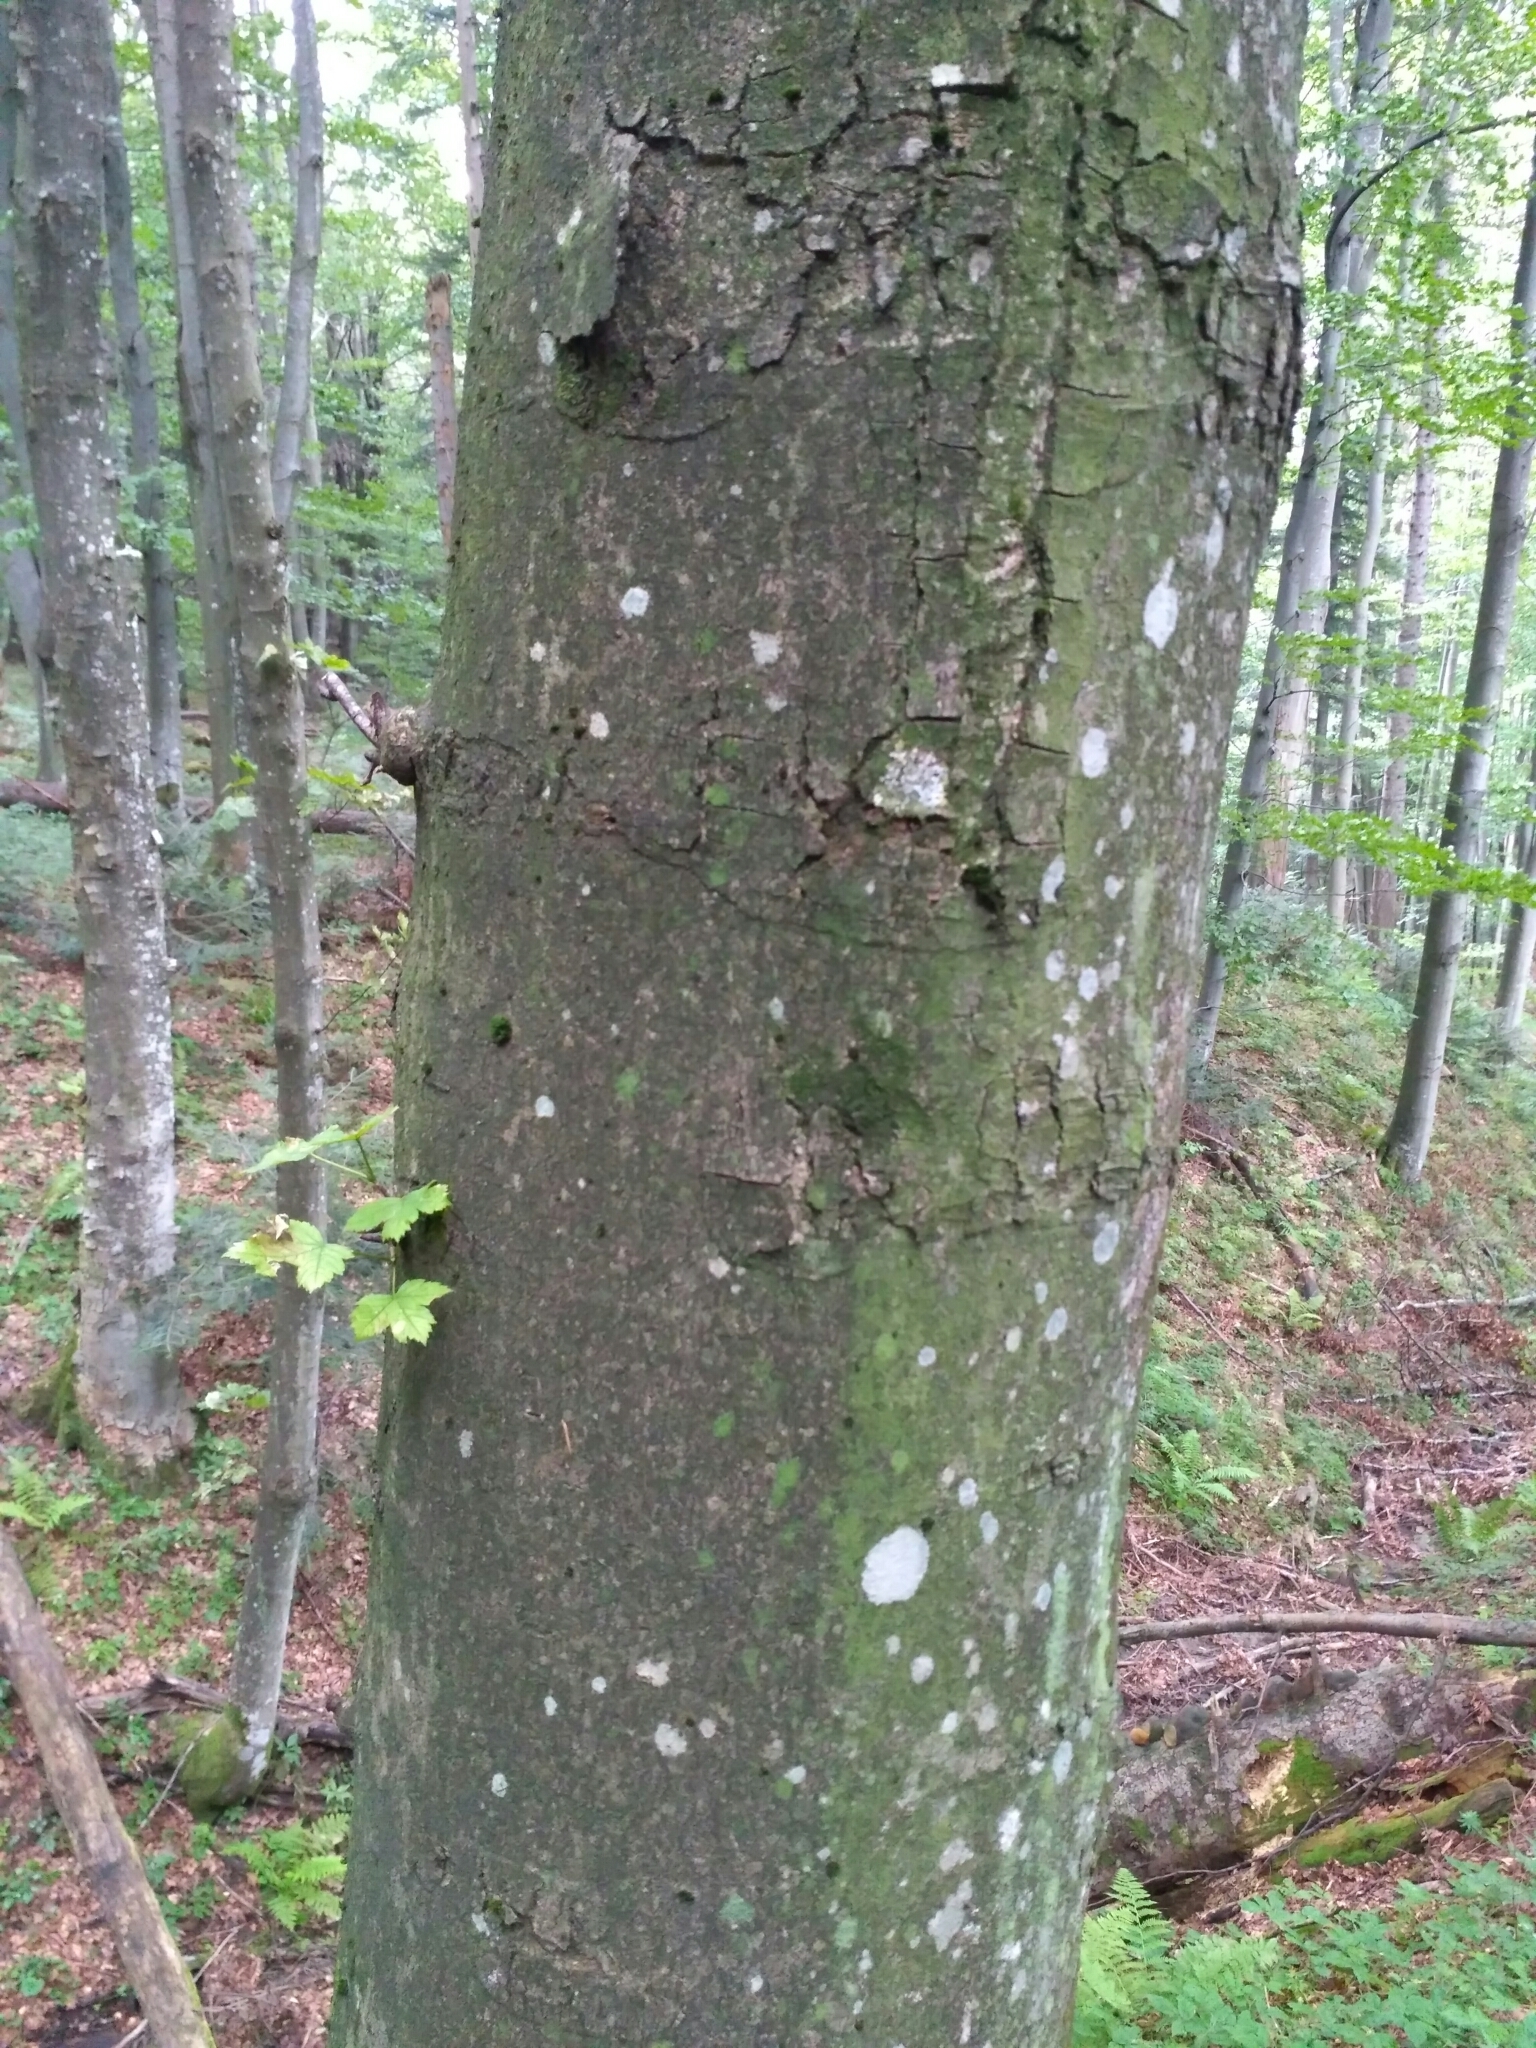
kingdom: Plantae
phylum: Tracheophyta
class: Magnoliopsida
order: Sapindales
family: Sapindaceae
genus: Acer
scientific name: Acer pseudoplatanus
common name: Sycamore
